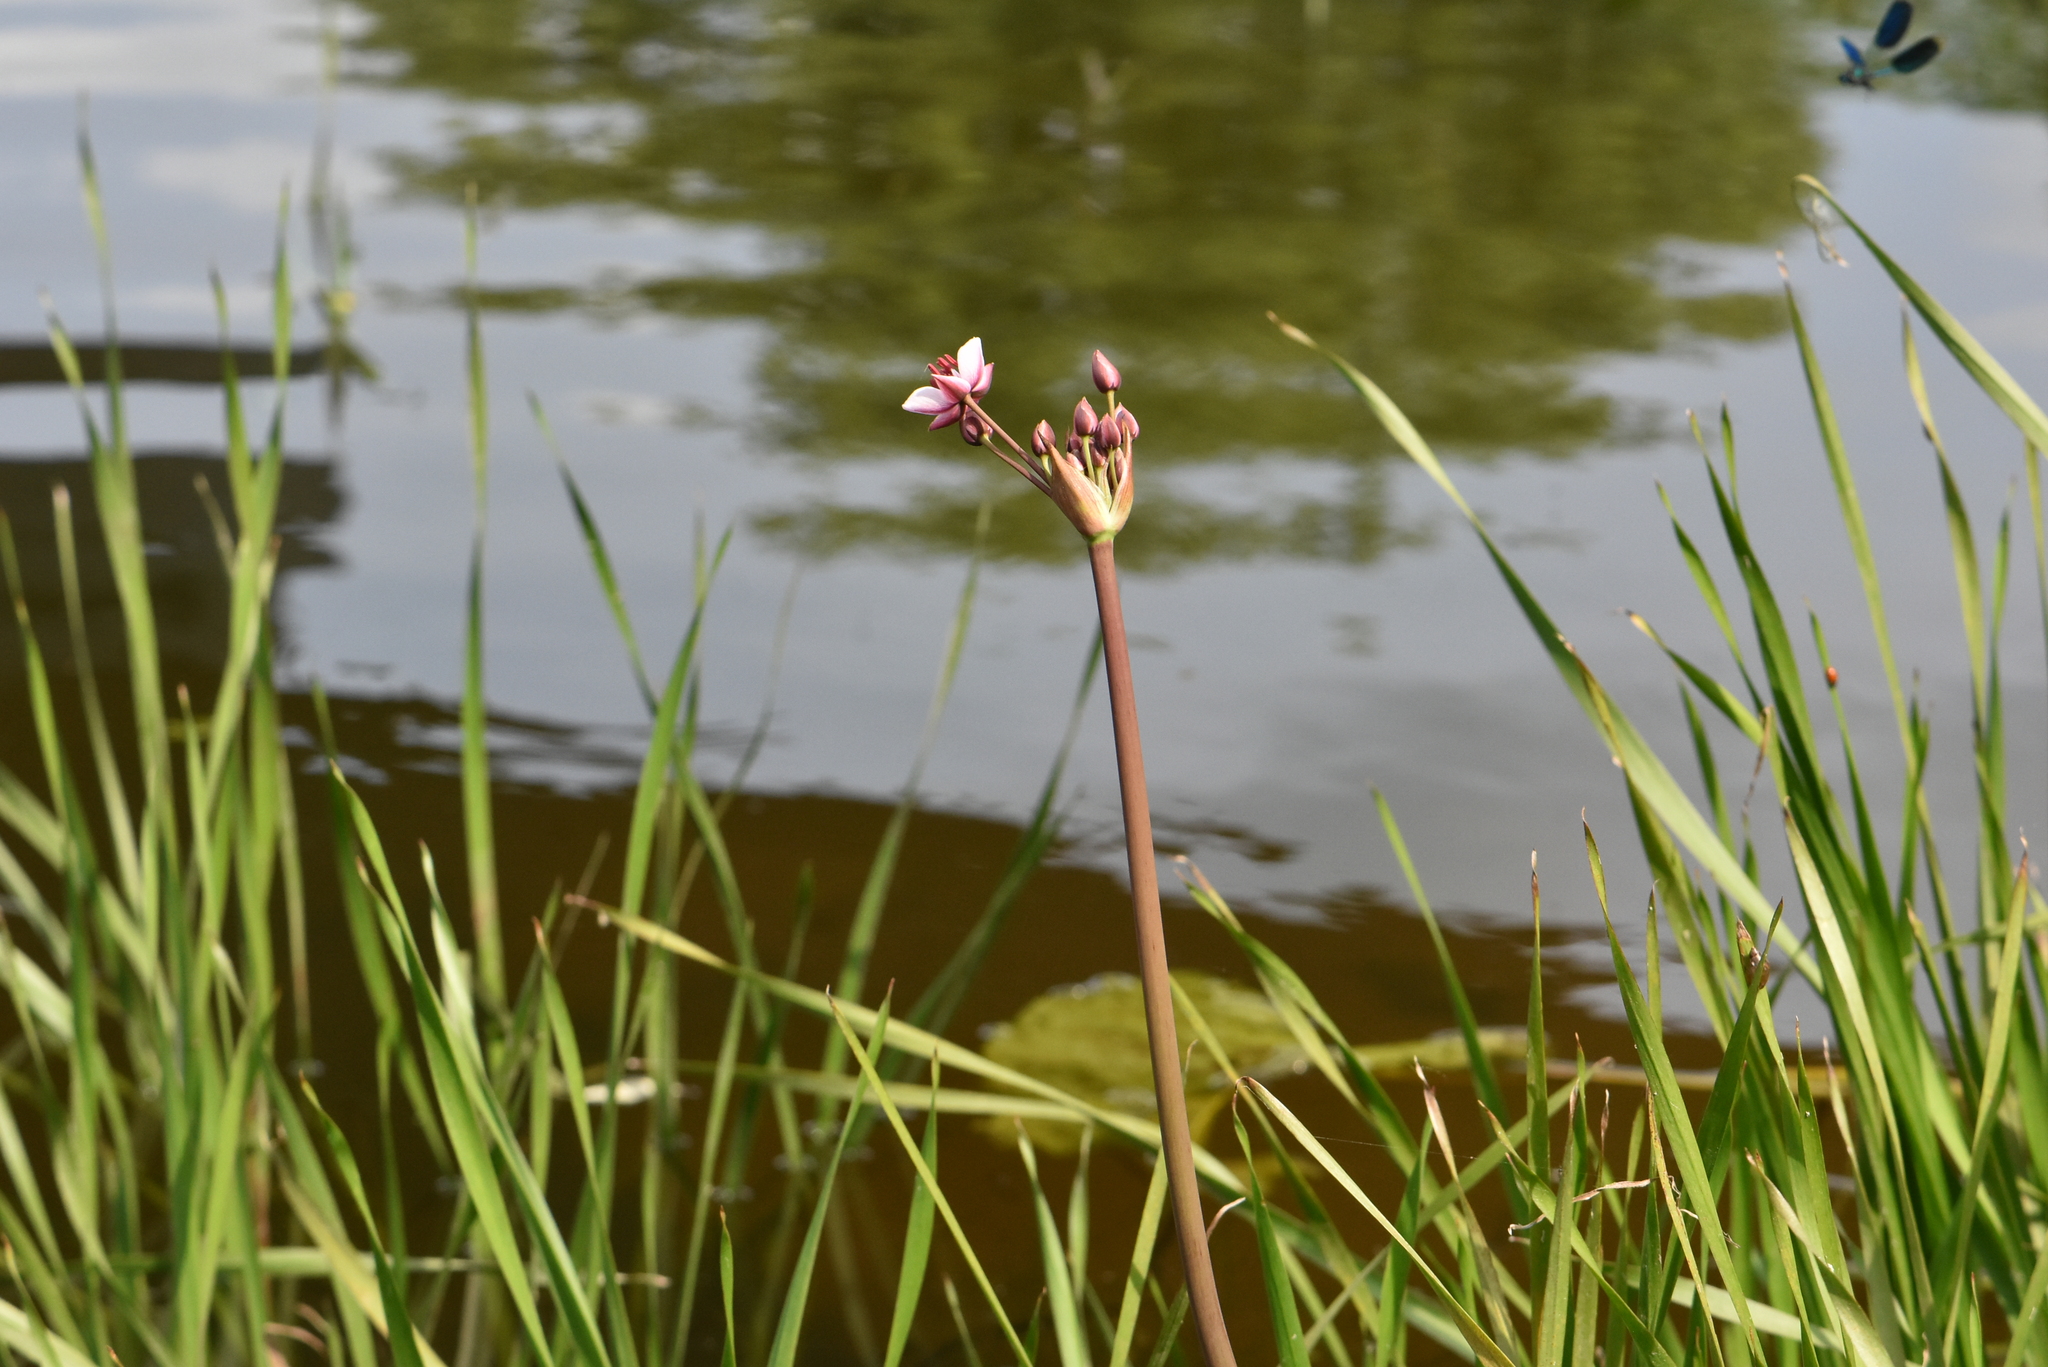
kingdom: Plantae
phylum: Tracheophyta
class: Liliopsida
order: Alismatales
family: Butomaceae
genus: Butomus
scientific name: Butomus umbellatus
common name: Flowering-rush
